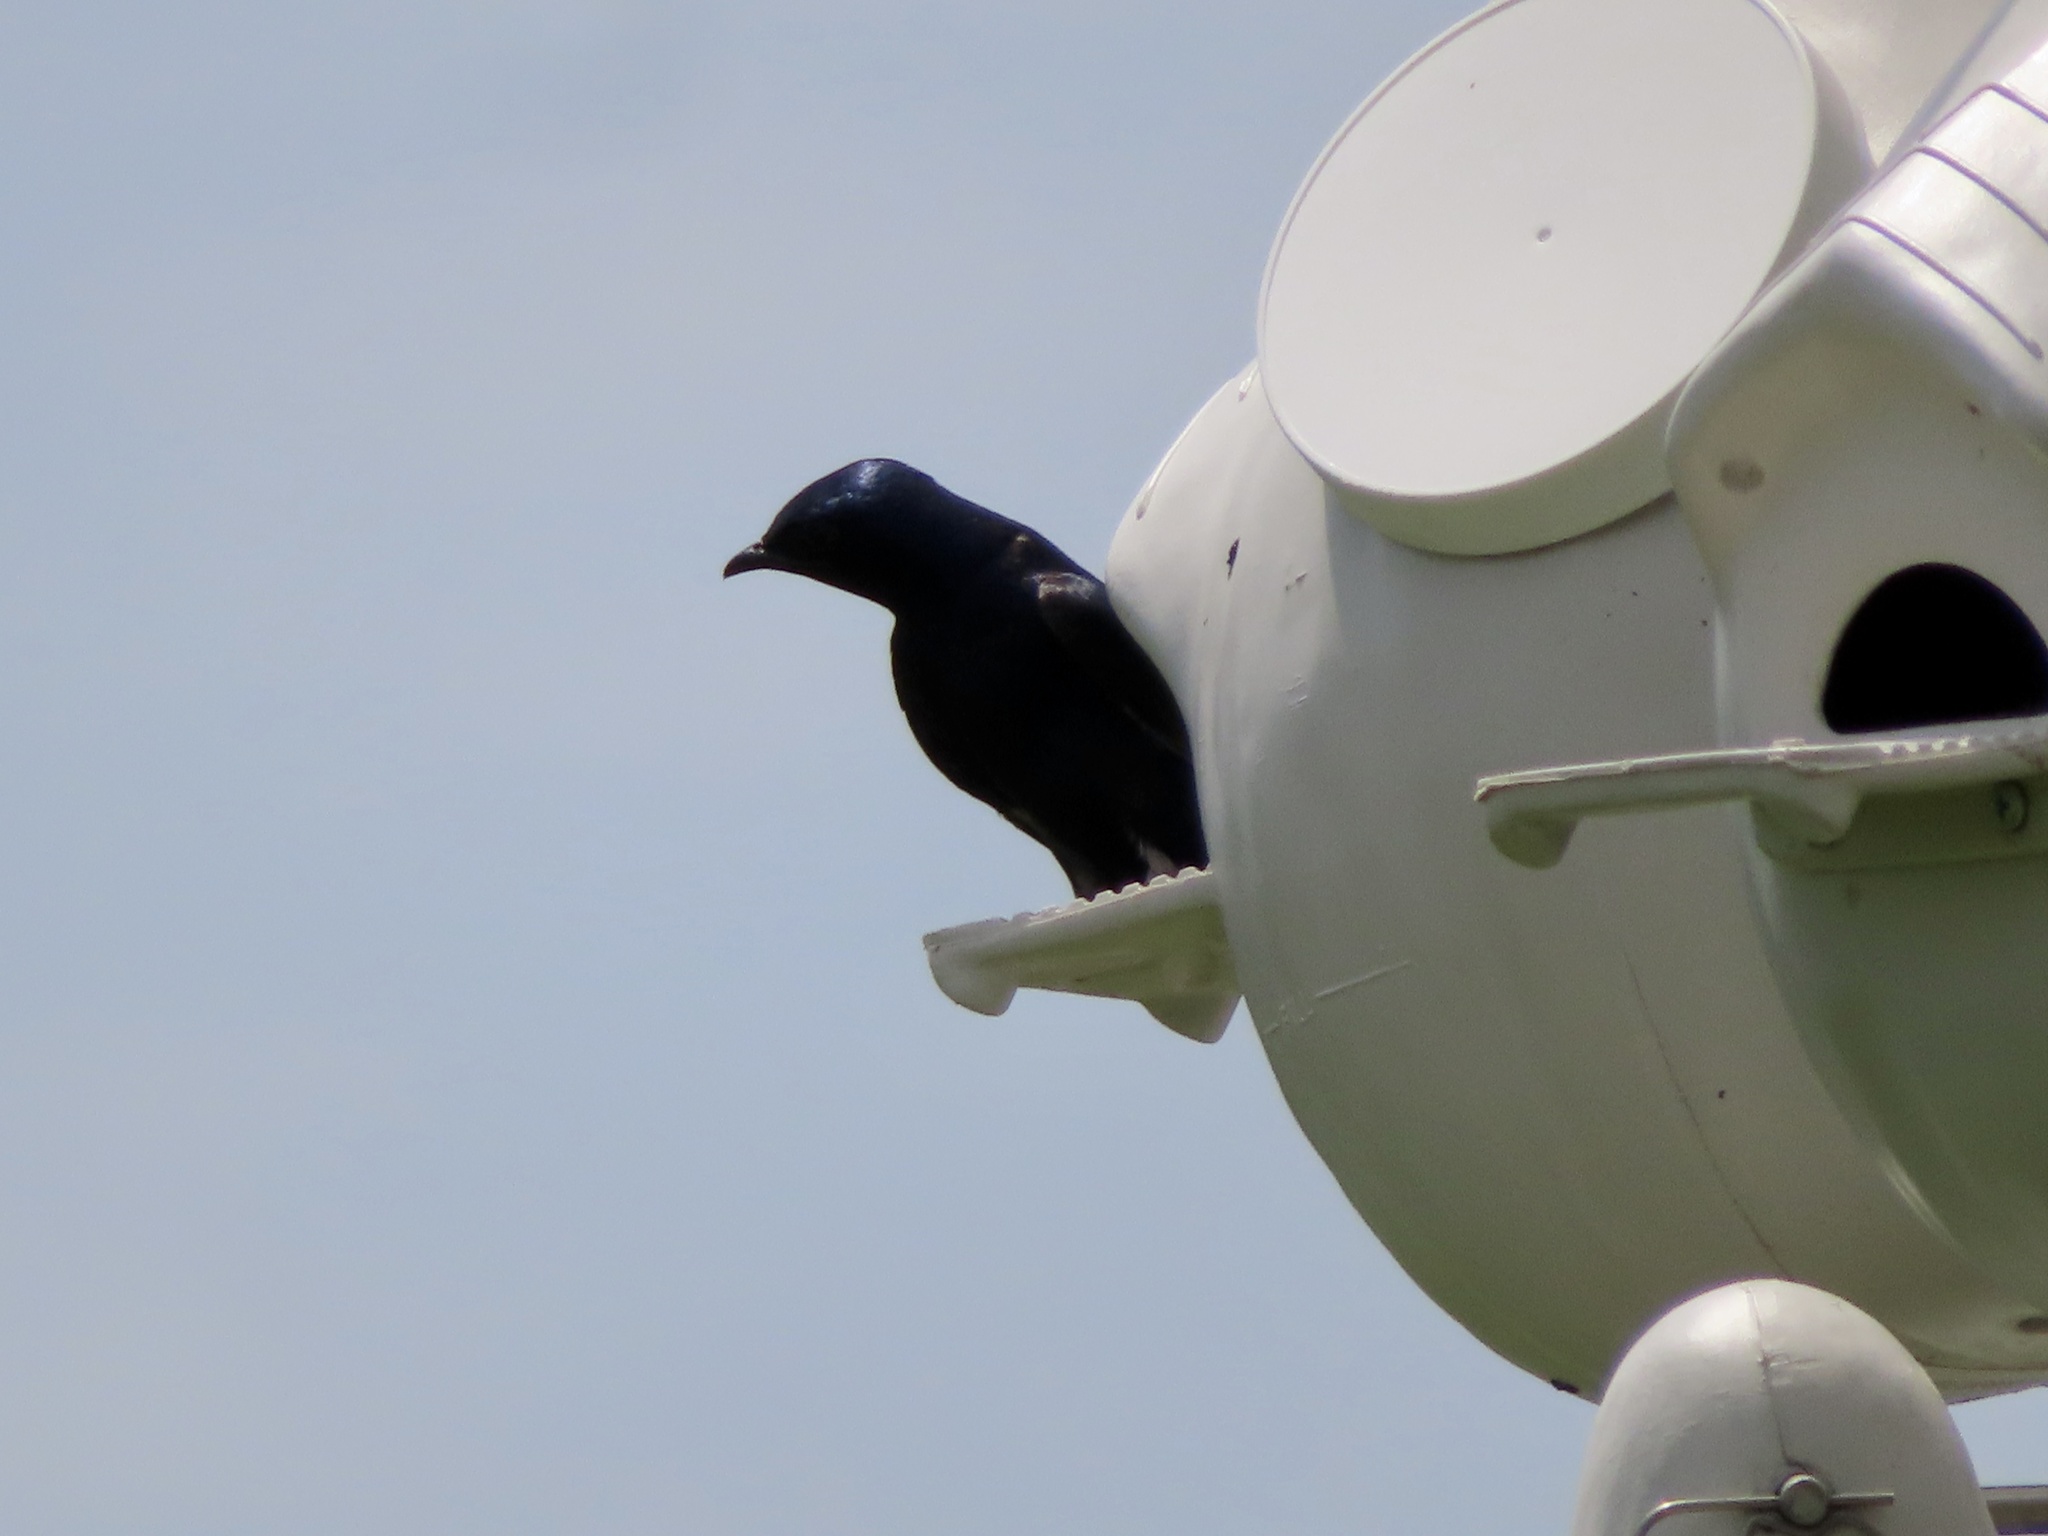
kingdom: Animalia
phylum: Chordata
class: Aves
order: Passeriformes
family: Hirundinidae
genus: Progne
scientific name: Progne subis
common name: Purple martin
